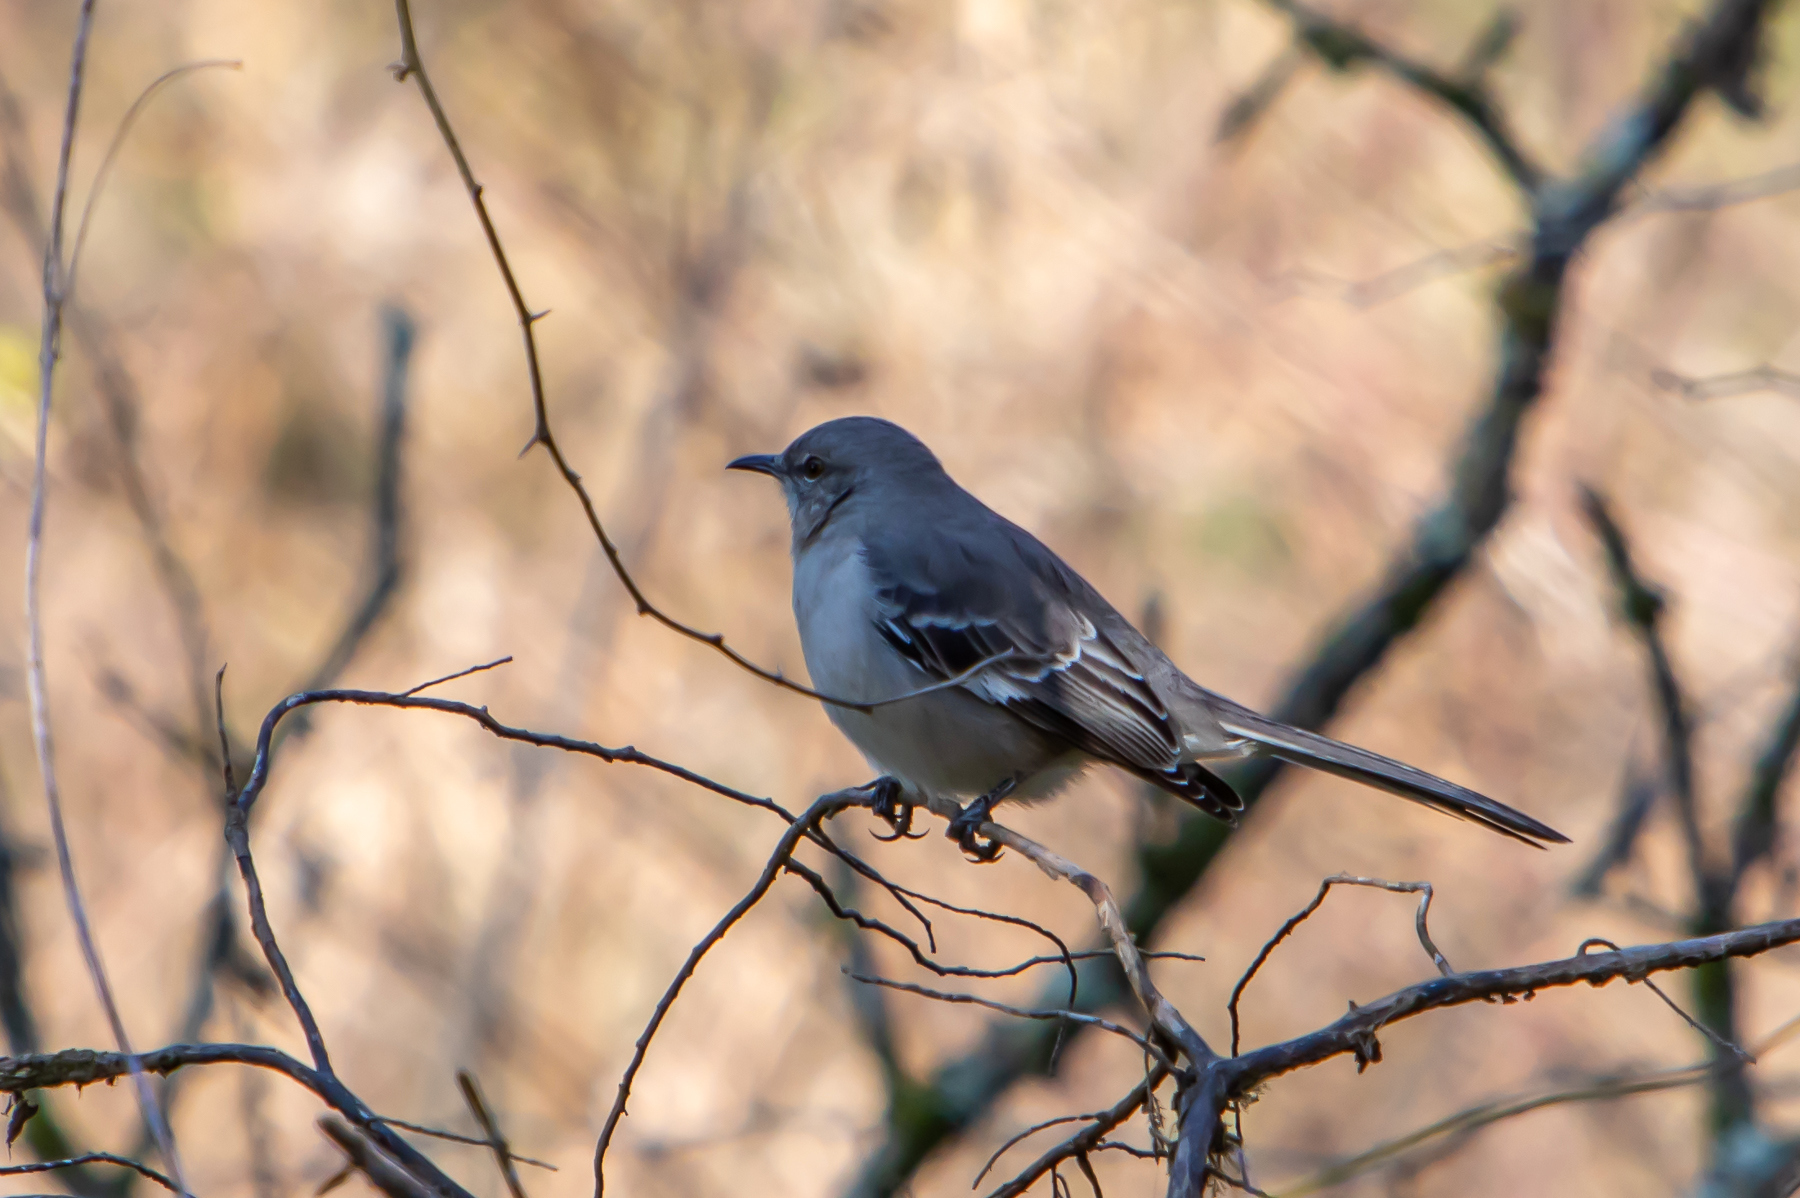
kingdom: Animalia
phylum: Chordata
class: Aves
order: Passeriformes
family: Mimidae
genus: Mimus
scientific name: Mimus polyglottos
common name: Northern mockingbird
